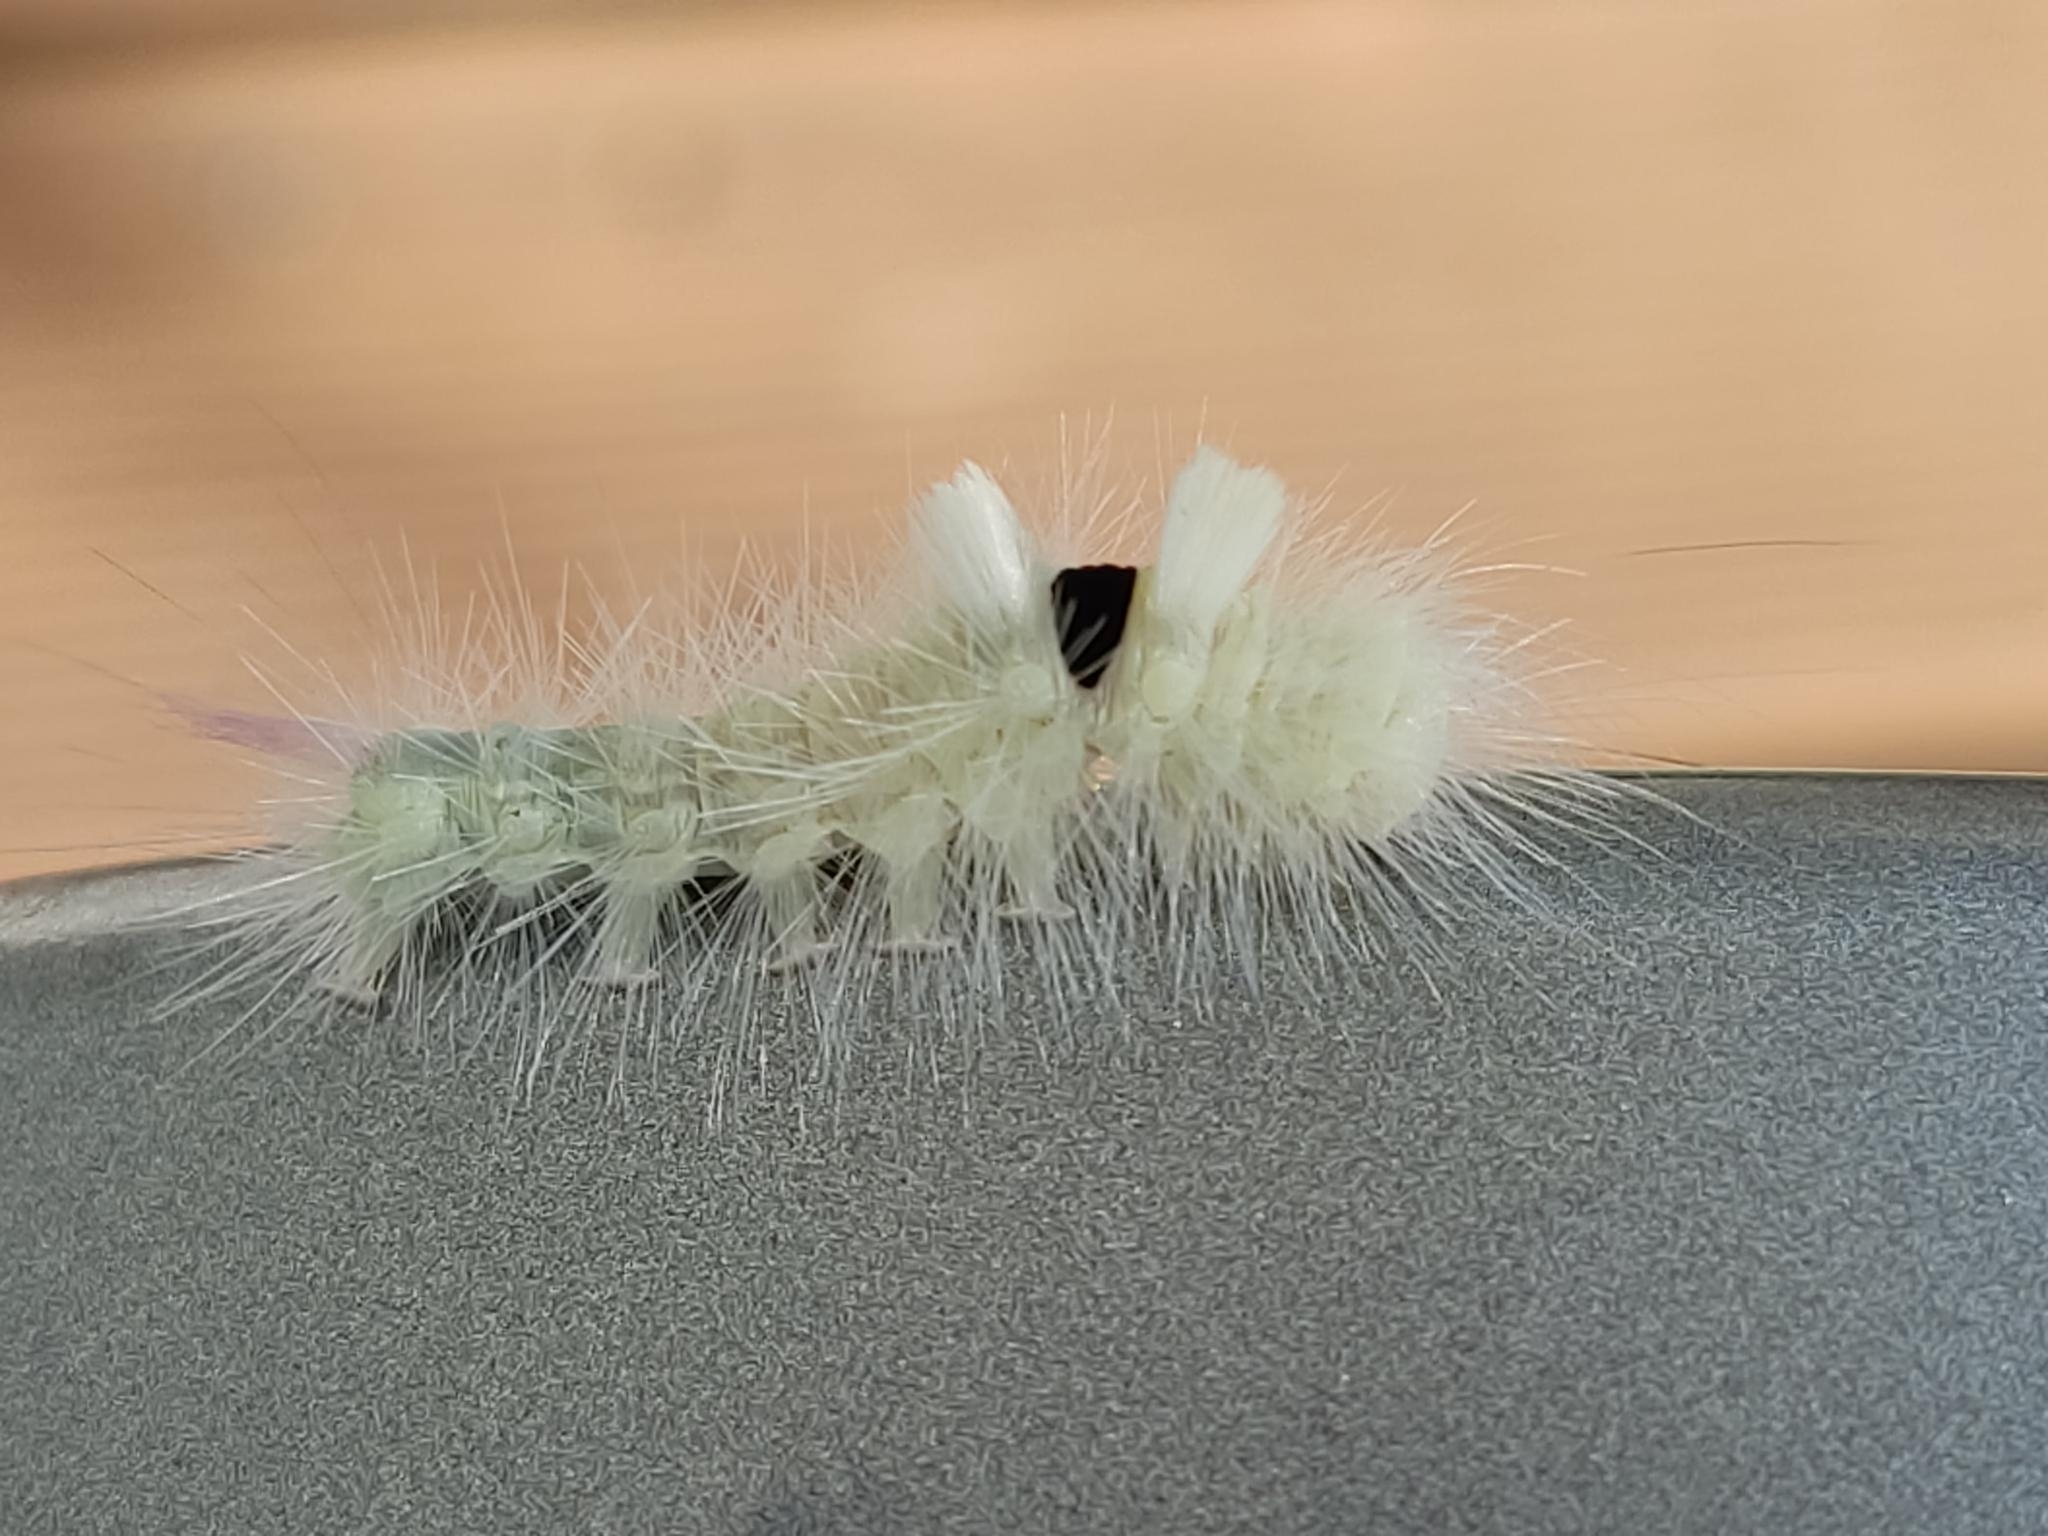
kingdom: Animalia
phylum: Arthropoda
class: Insecta
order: Lepidoptera
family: Erebidae
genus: Calliteara
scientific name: Calliteara pudibunda
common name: Pale tussock
